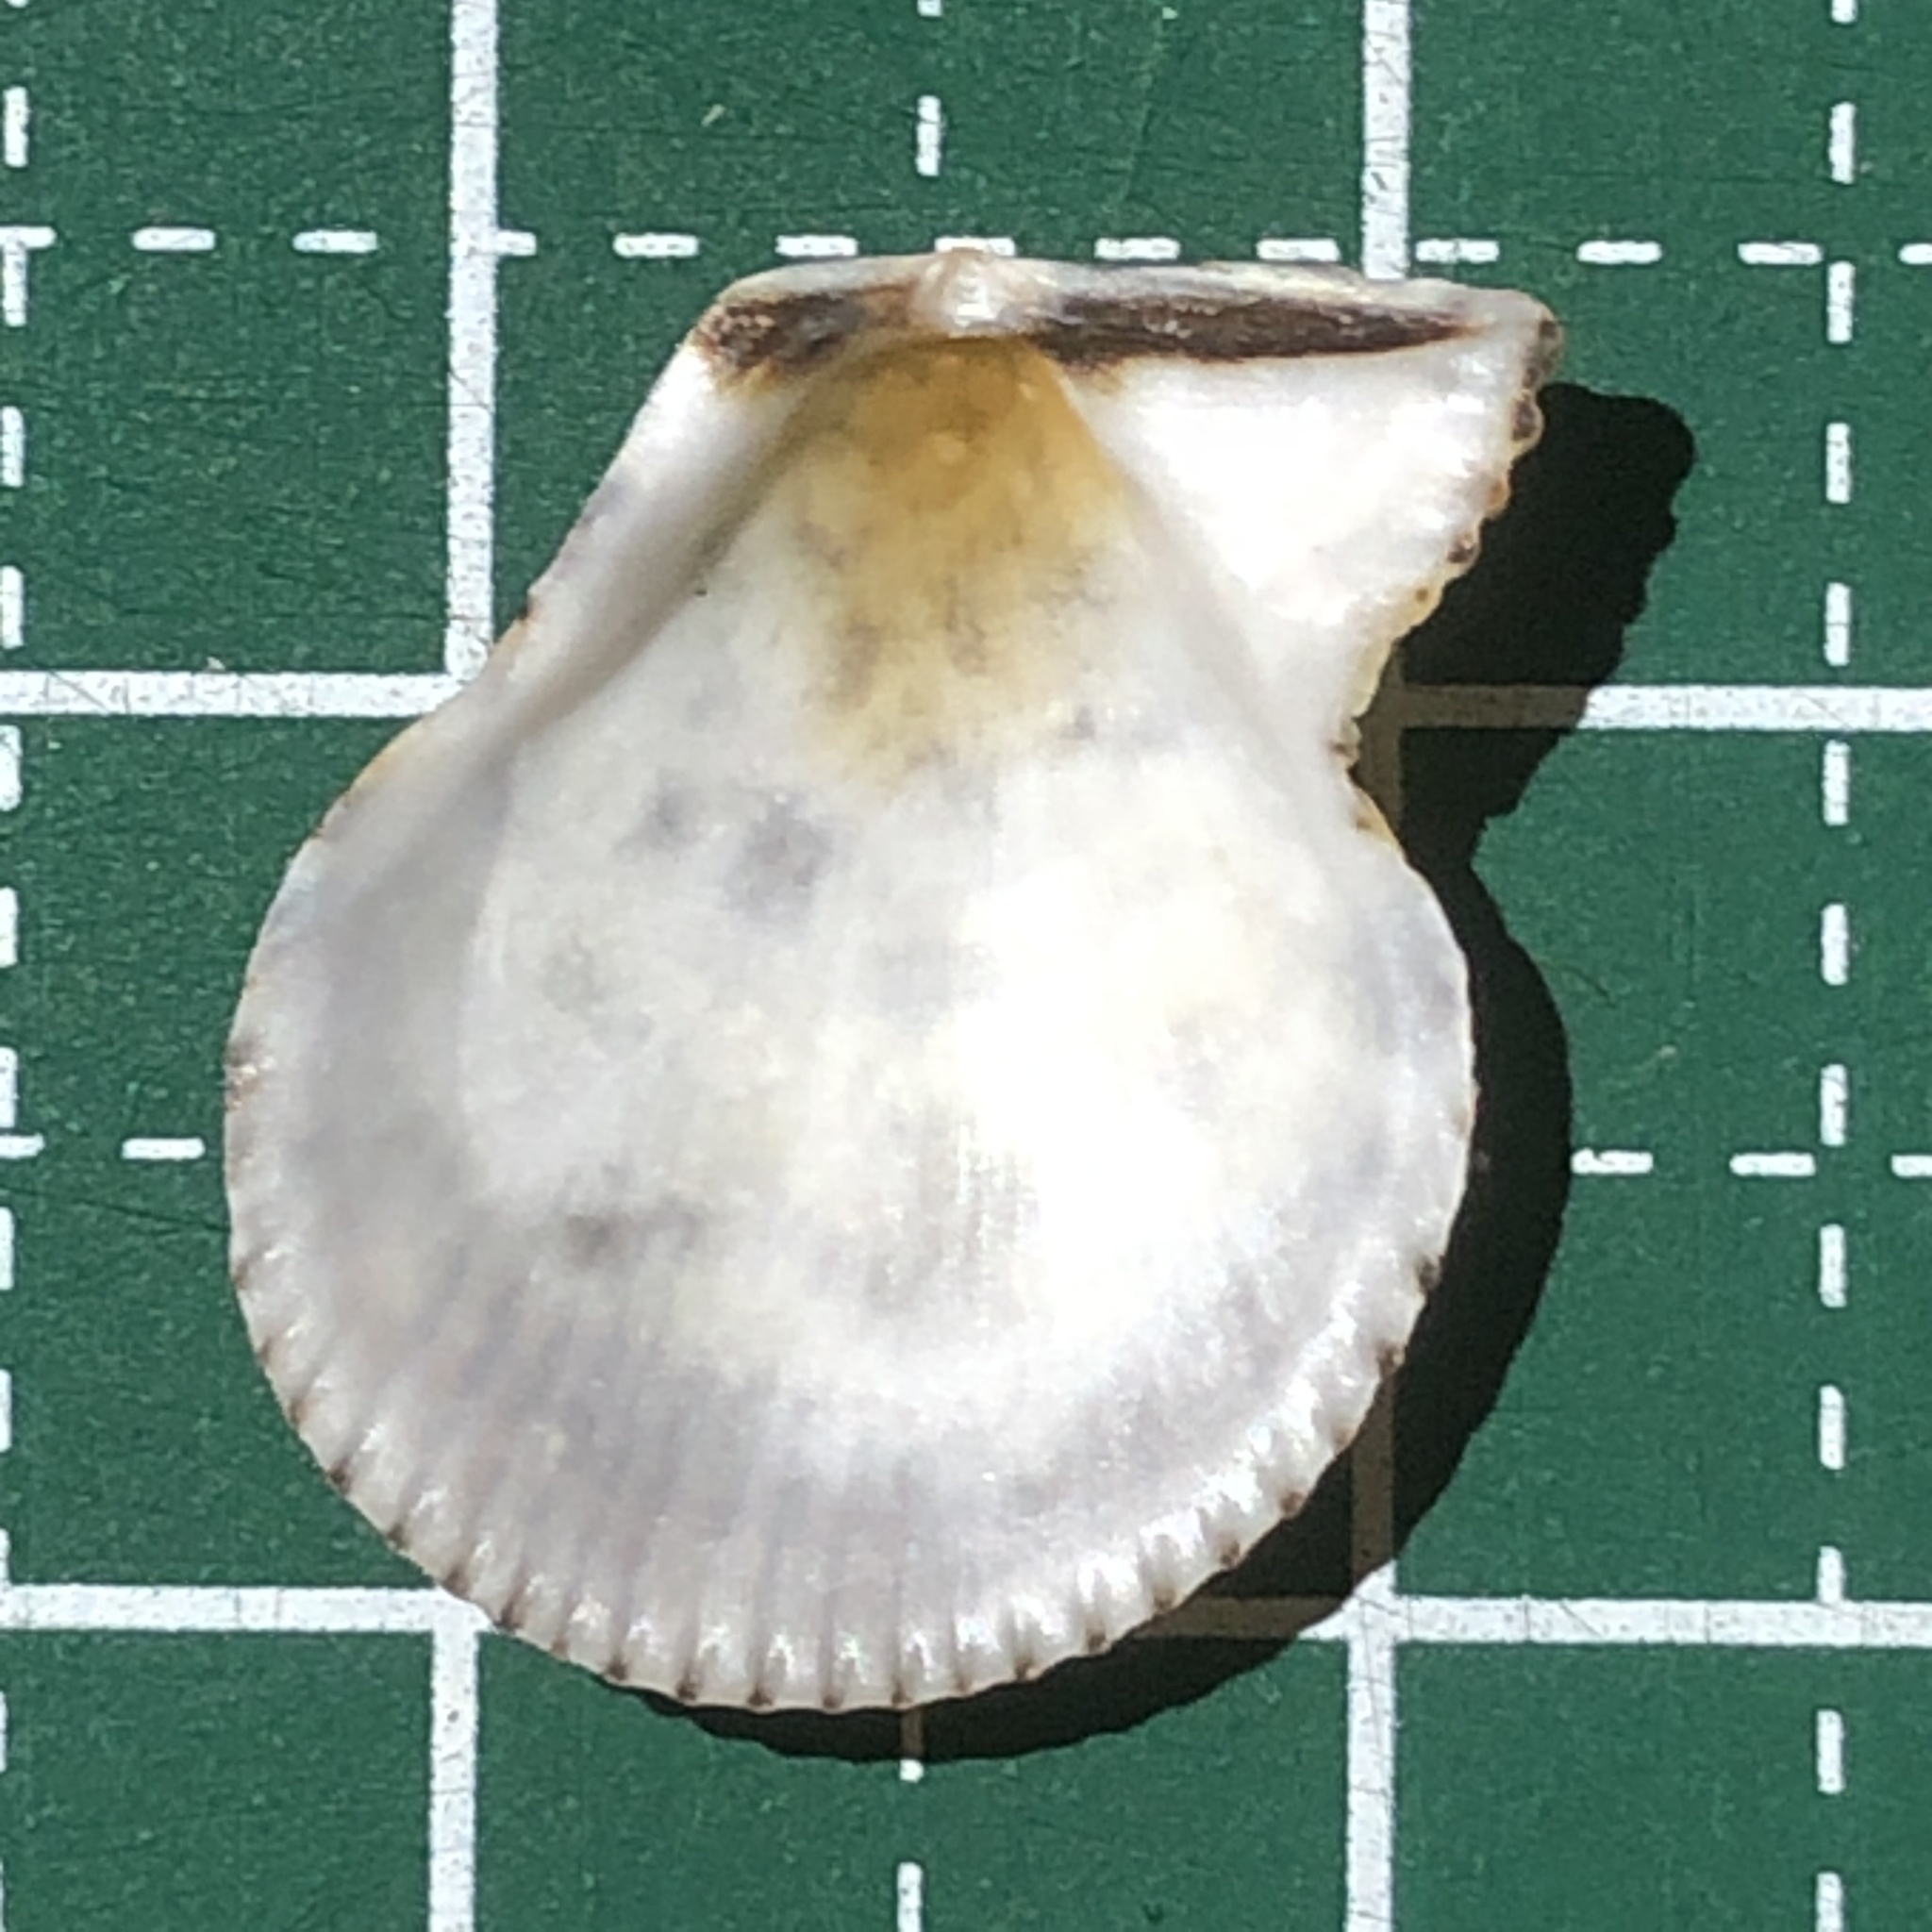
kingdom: Animalia
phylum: Mollusca
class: Bivalvia
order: Pectinida
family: Pectinidae
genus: Mimachlamys
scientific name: Mimachlamys albolineata
